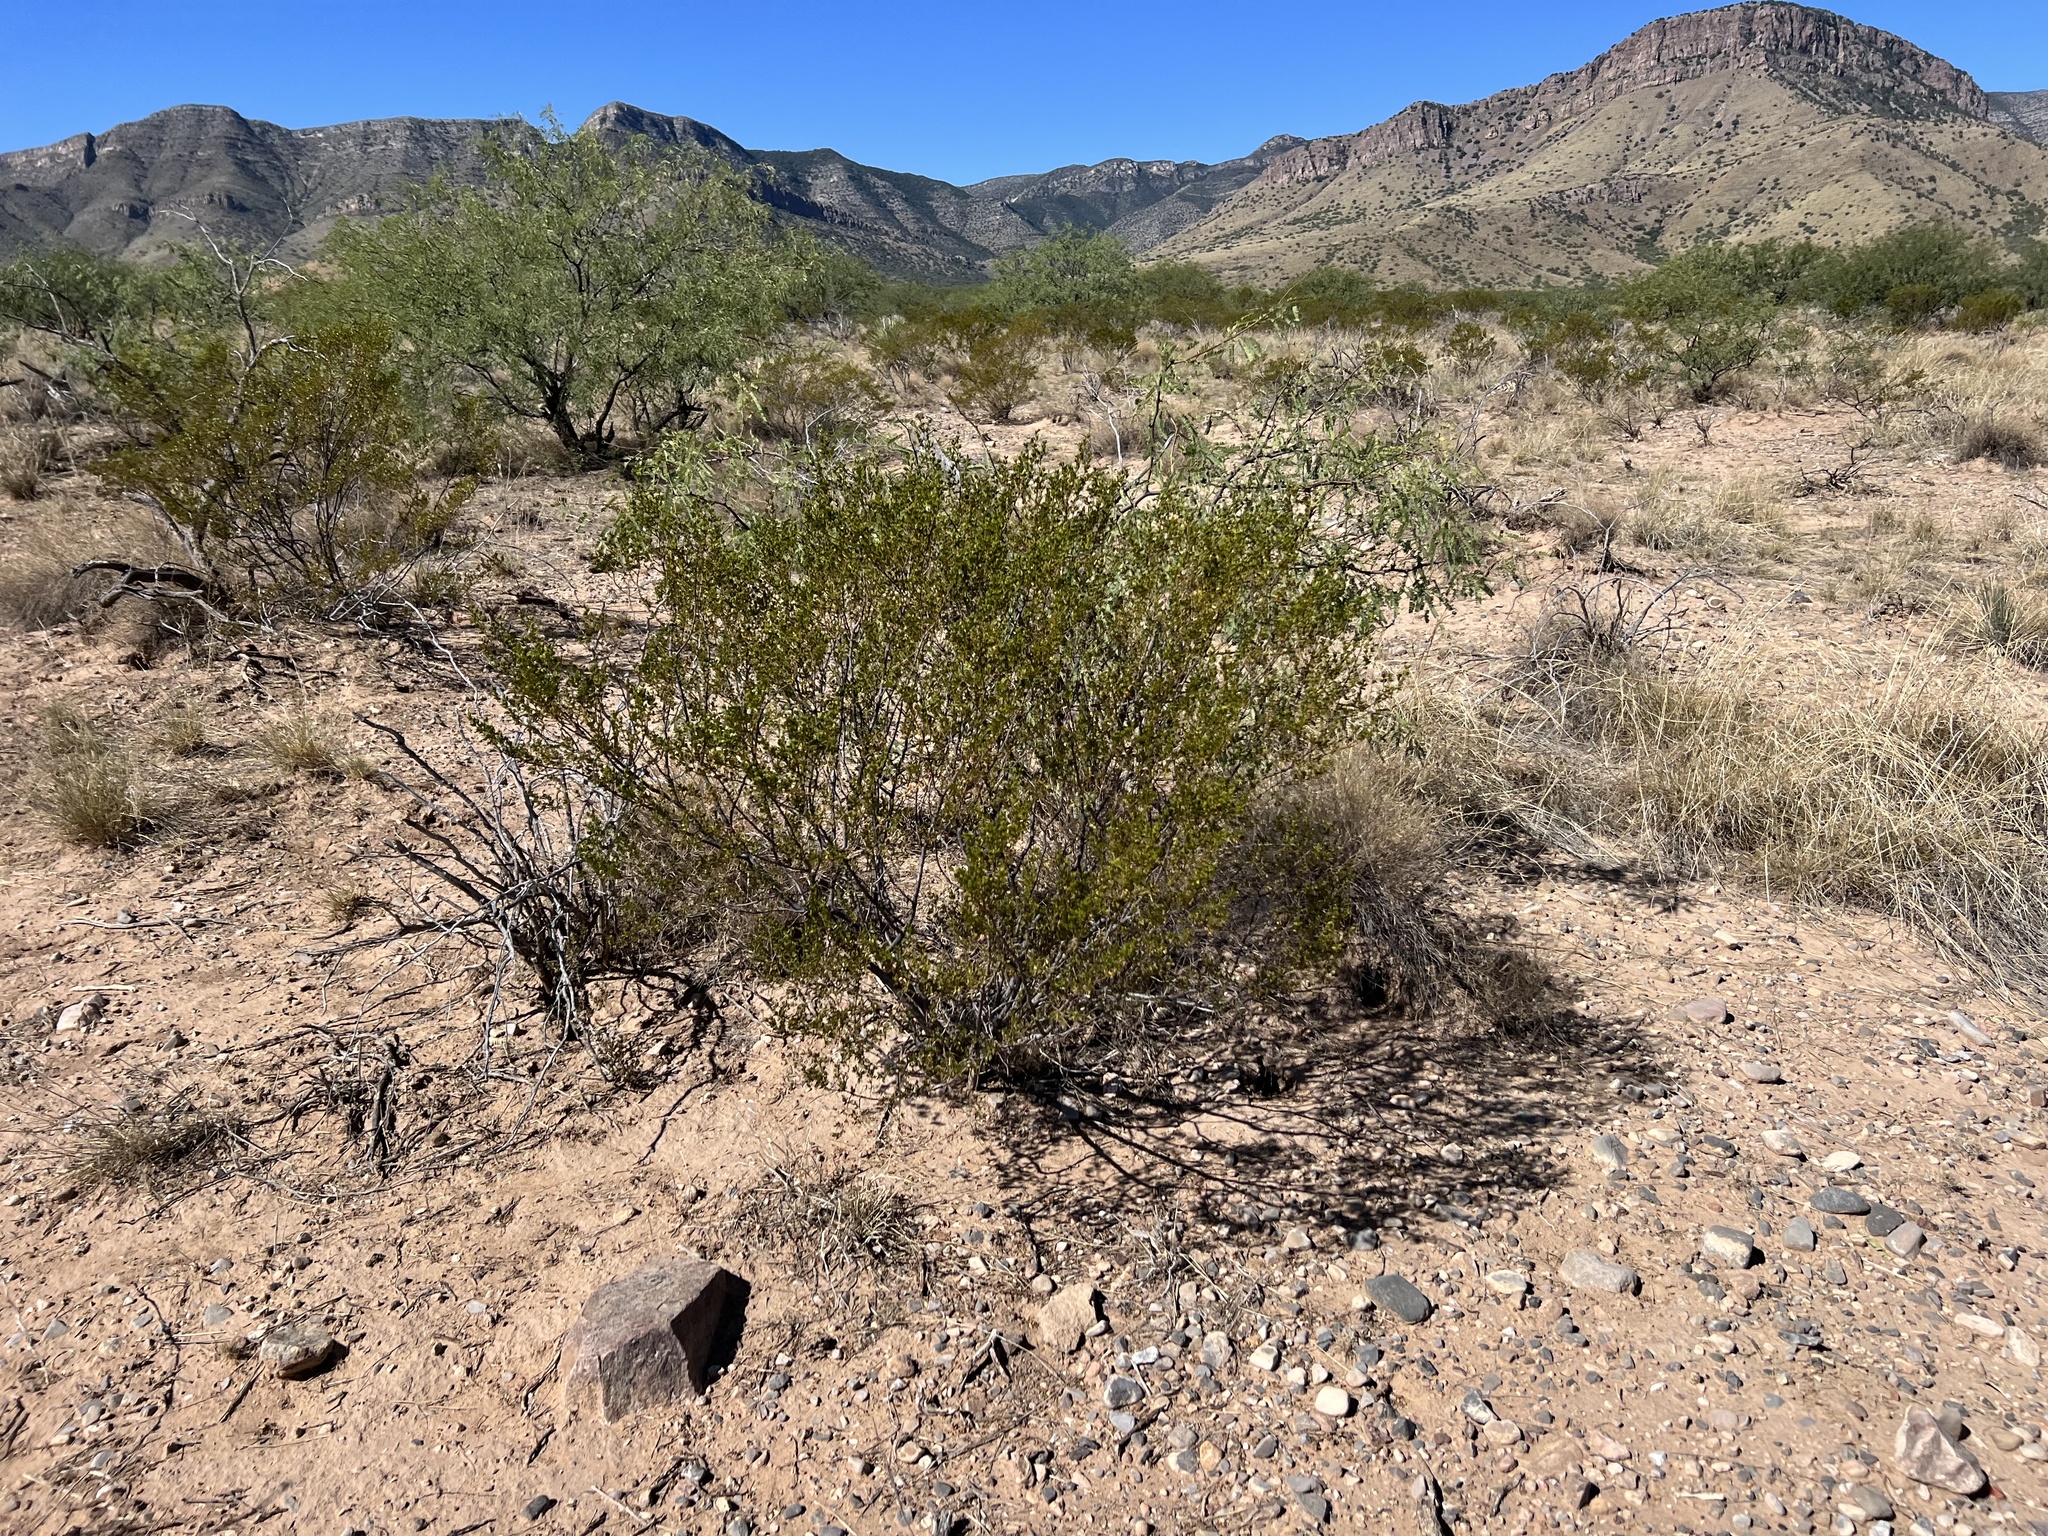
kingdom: Plantae
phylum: Tracheophyta
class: Magnoliopsida
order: Zygophyllales
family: Zygophyllaceae
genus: Larrea
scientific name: Larrea tridentata
